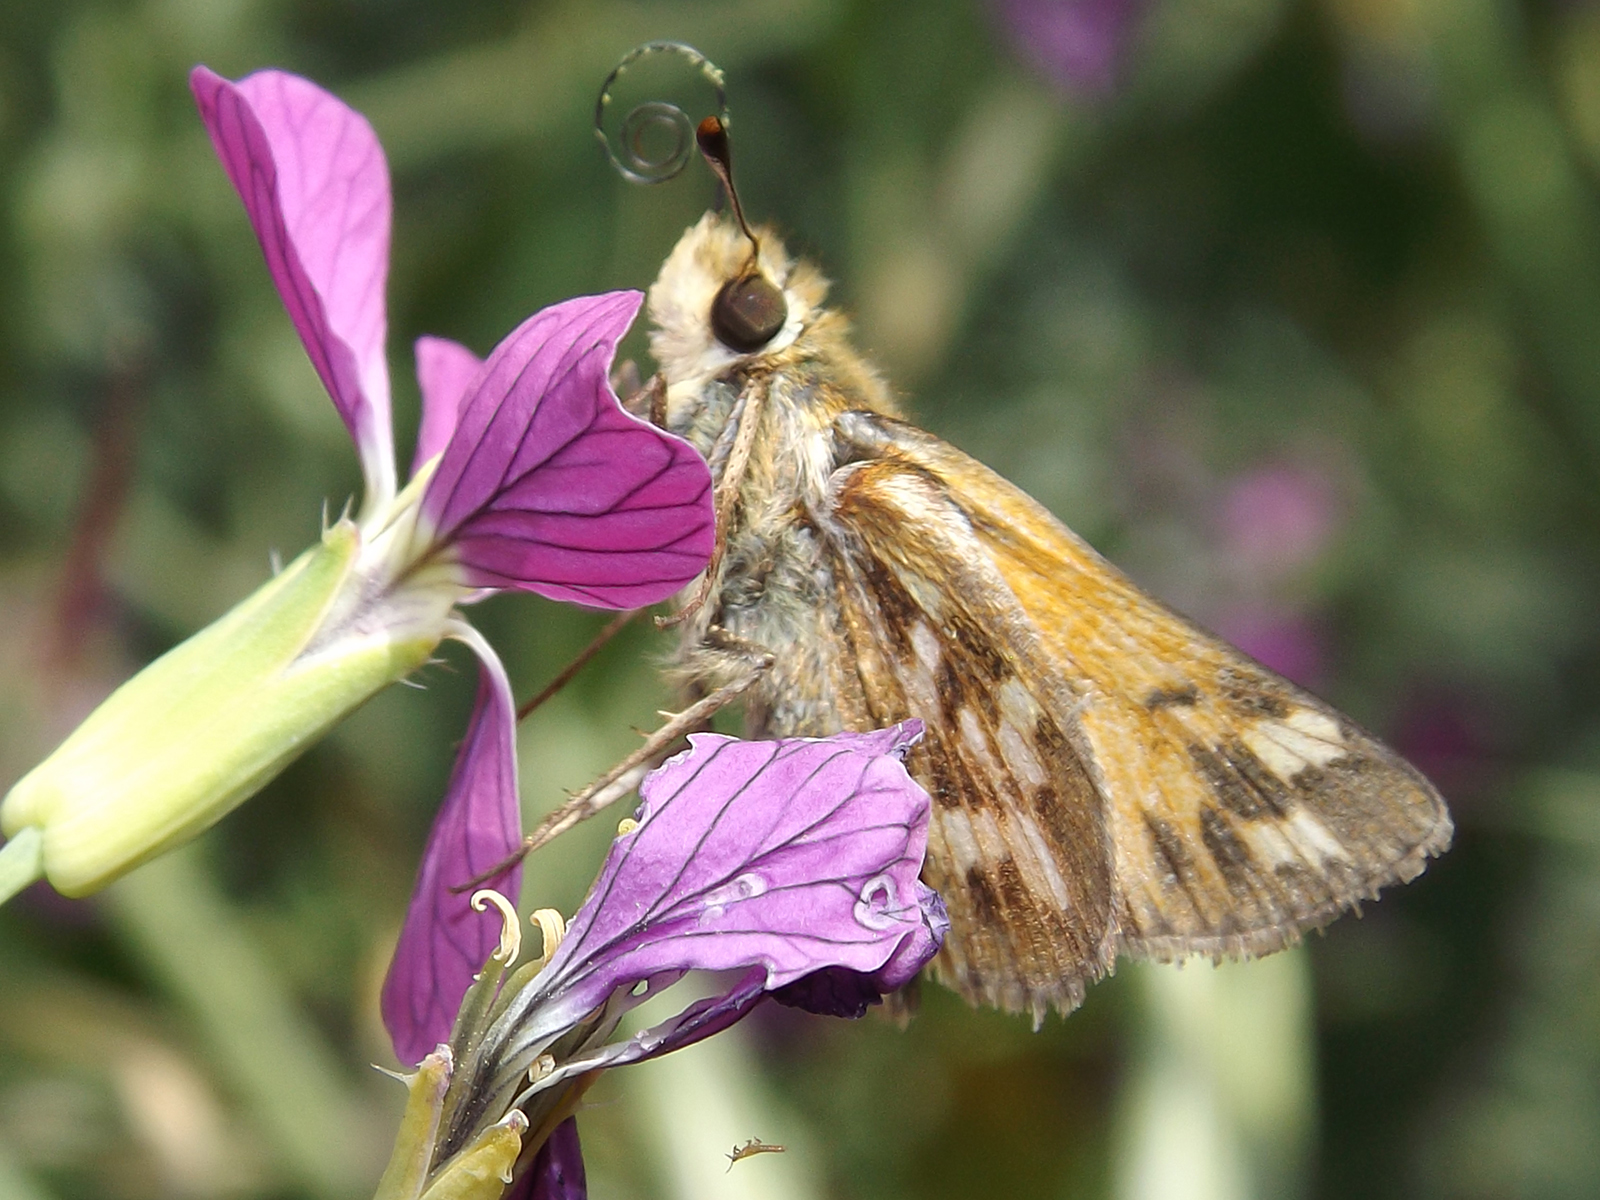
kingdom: Animalia
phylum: Arthropoda
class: Insecta
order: Lepidoptera
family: Hesperiidae
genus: Hylephila
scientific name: Hylephila signata
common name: Signata skipper
